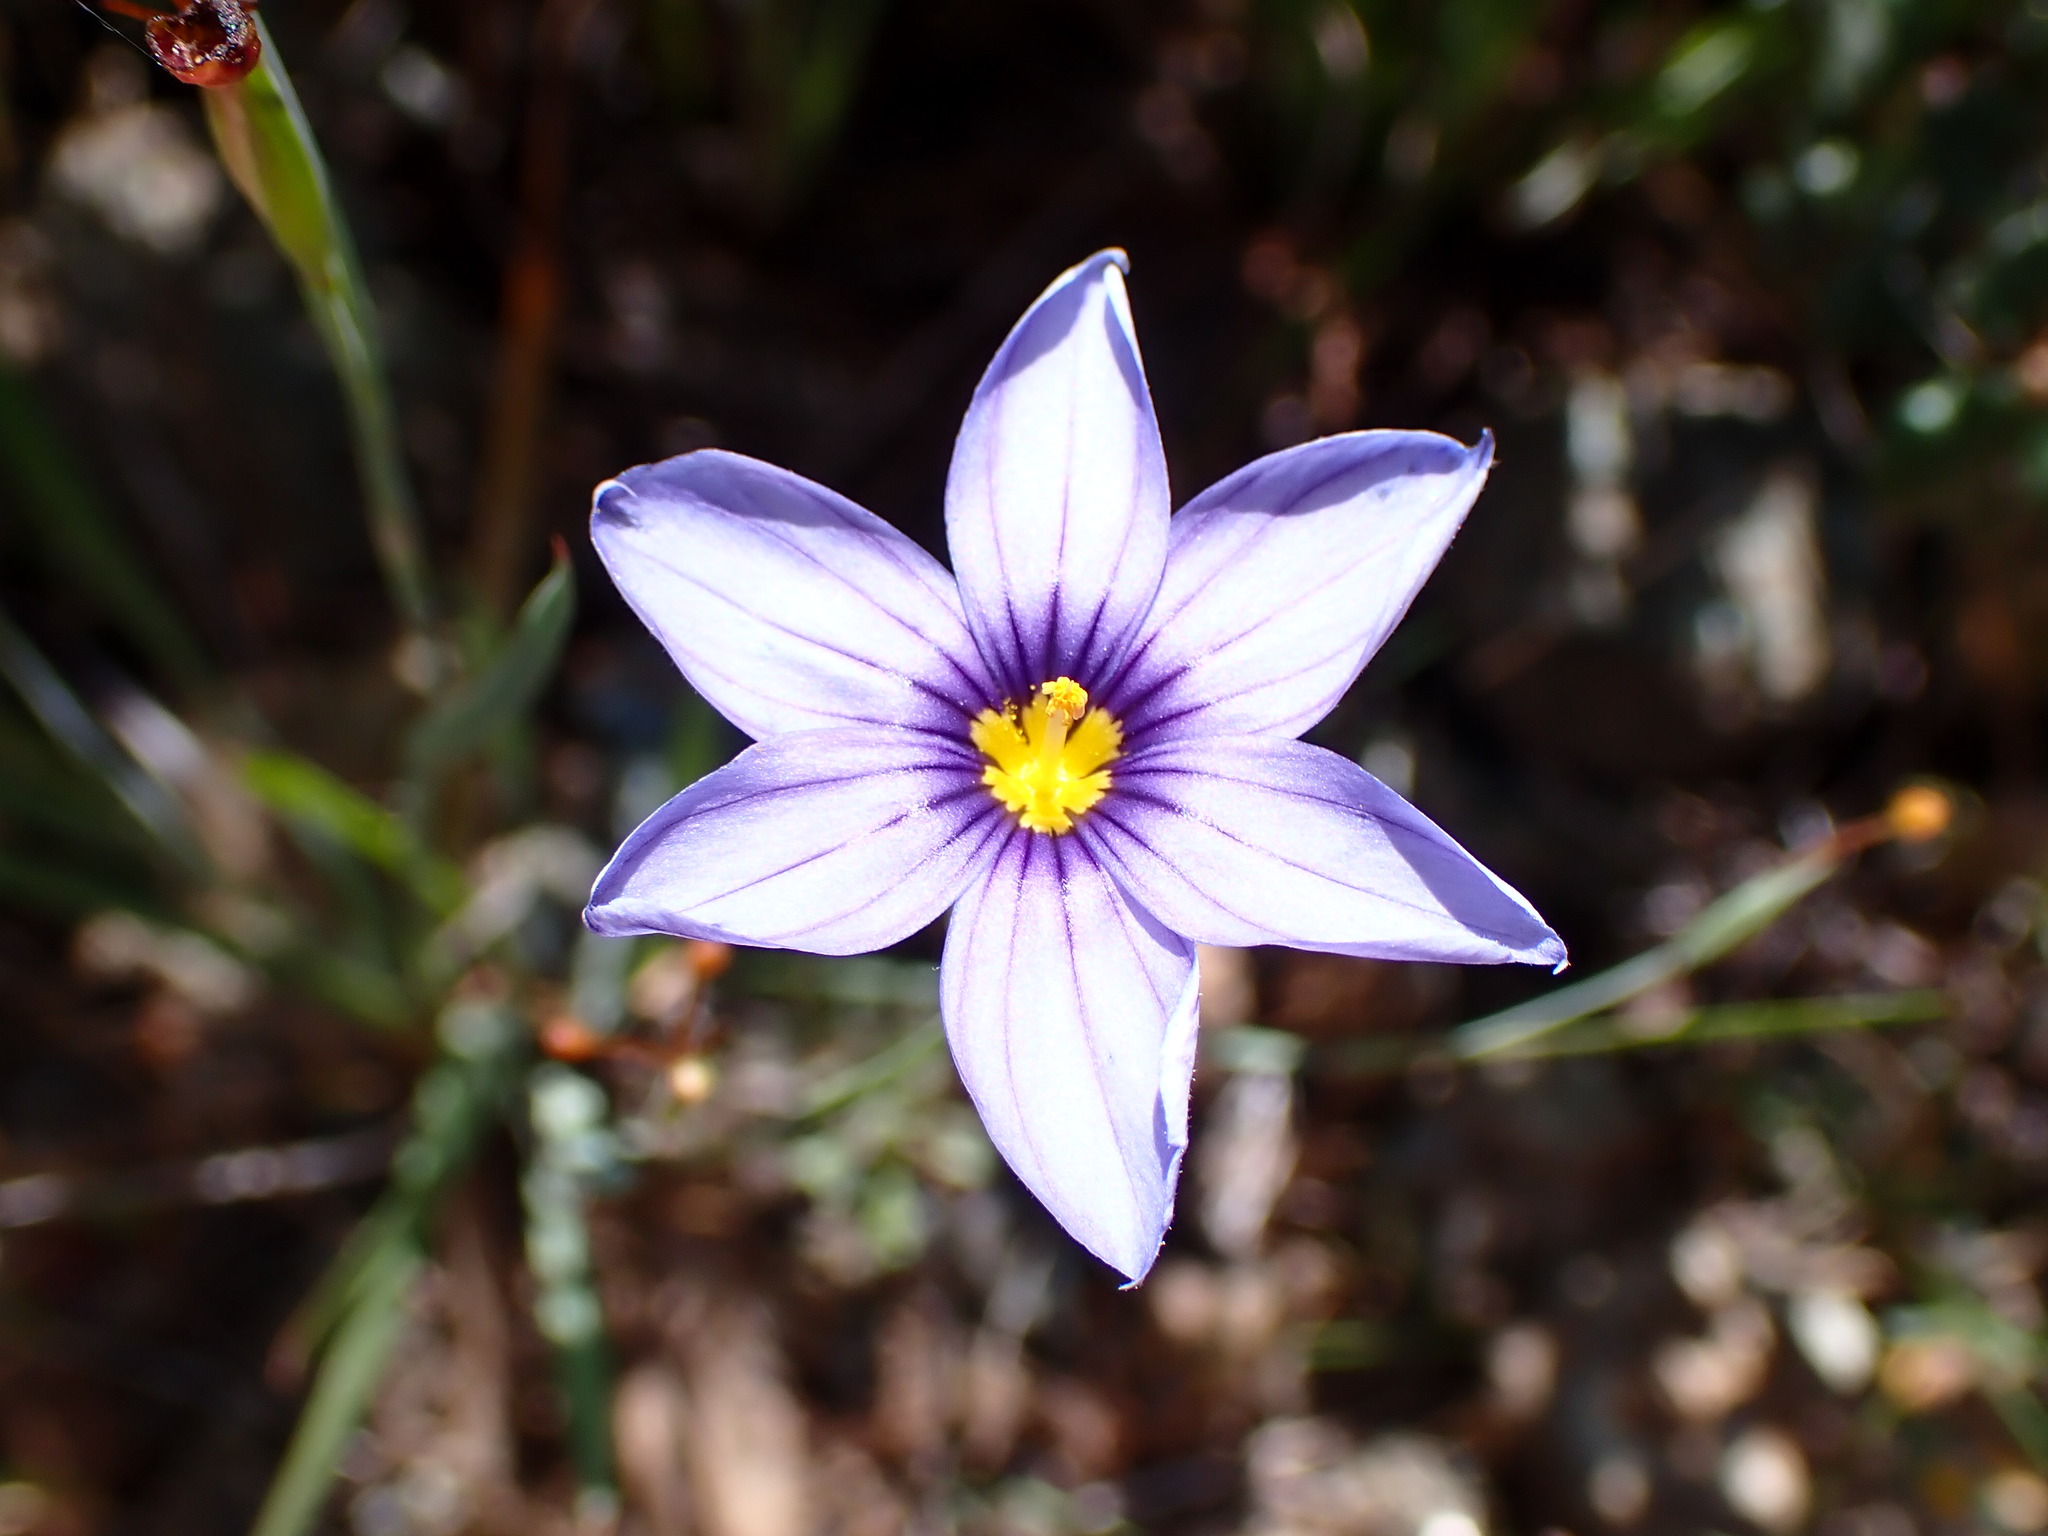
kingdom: Plantae
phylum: Tracheophyta
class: Liliopsida
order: Asparagales
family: Iridaceae
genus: Sisyrinchium
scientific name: Sisyrinchium bellum
